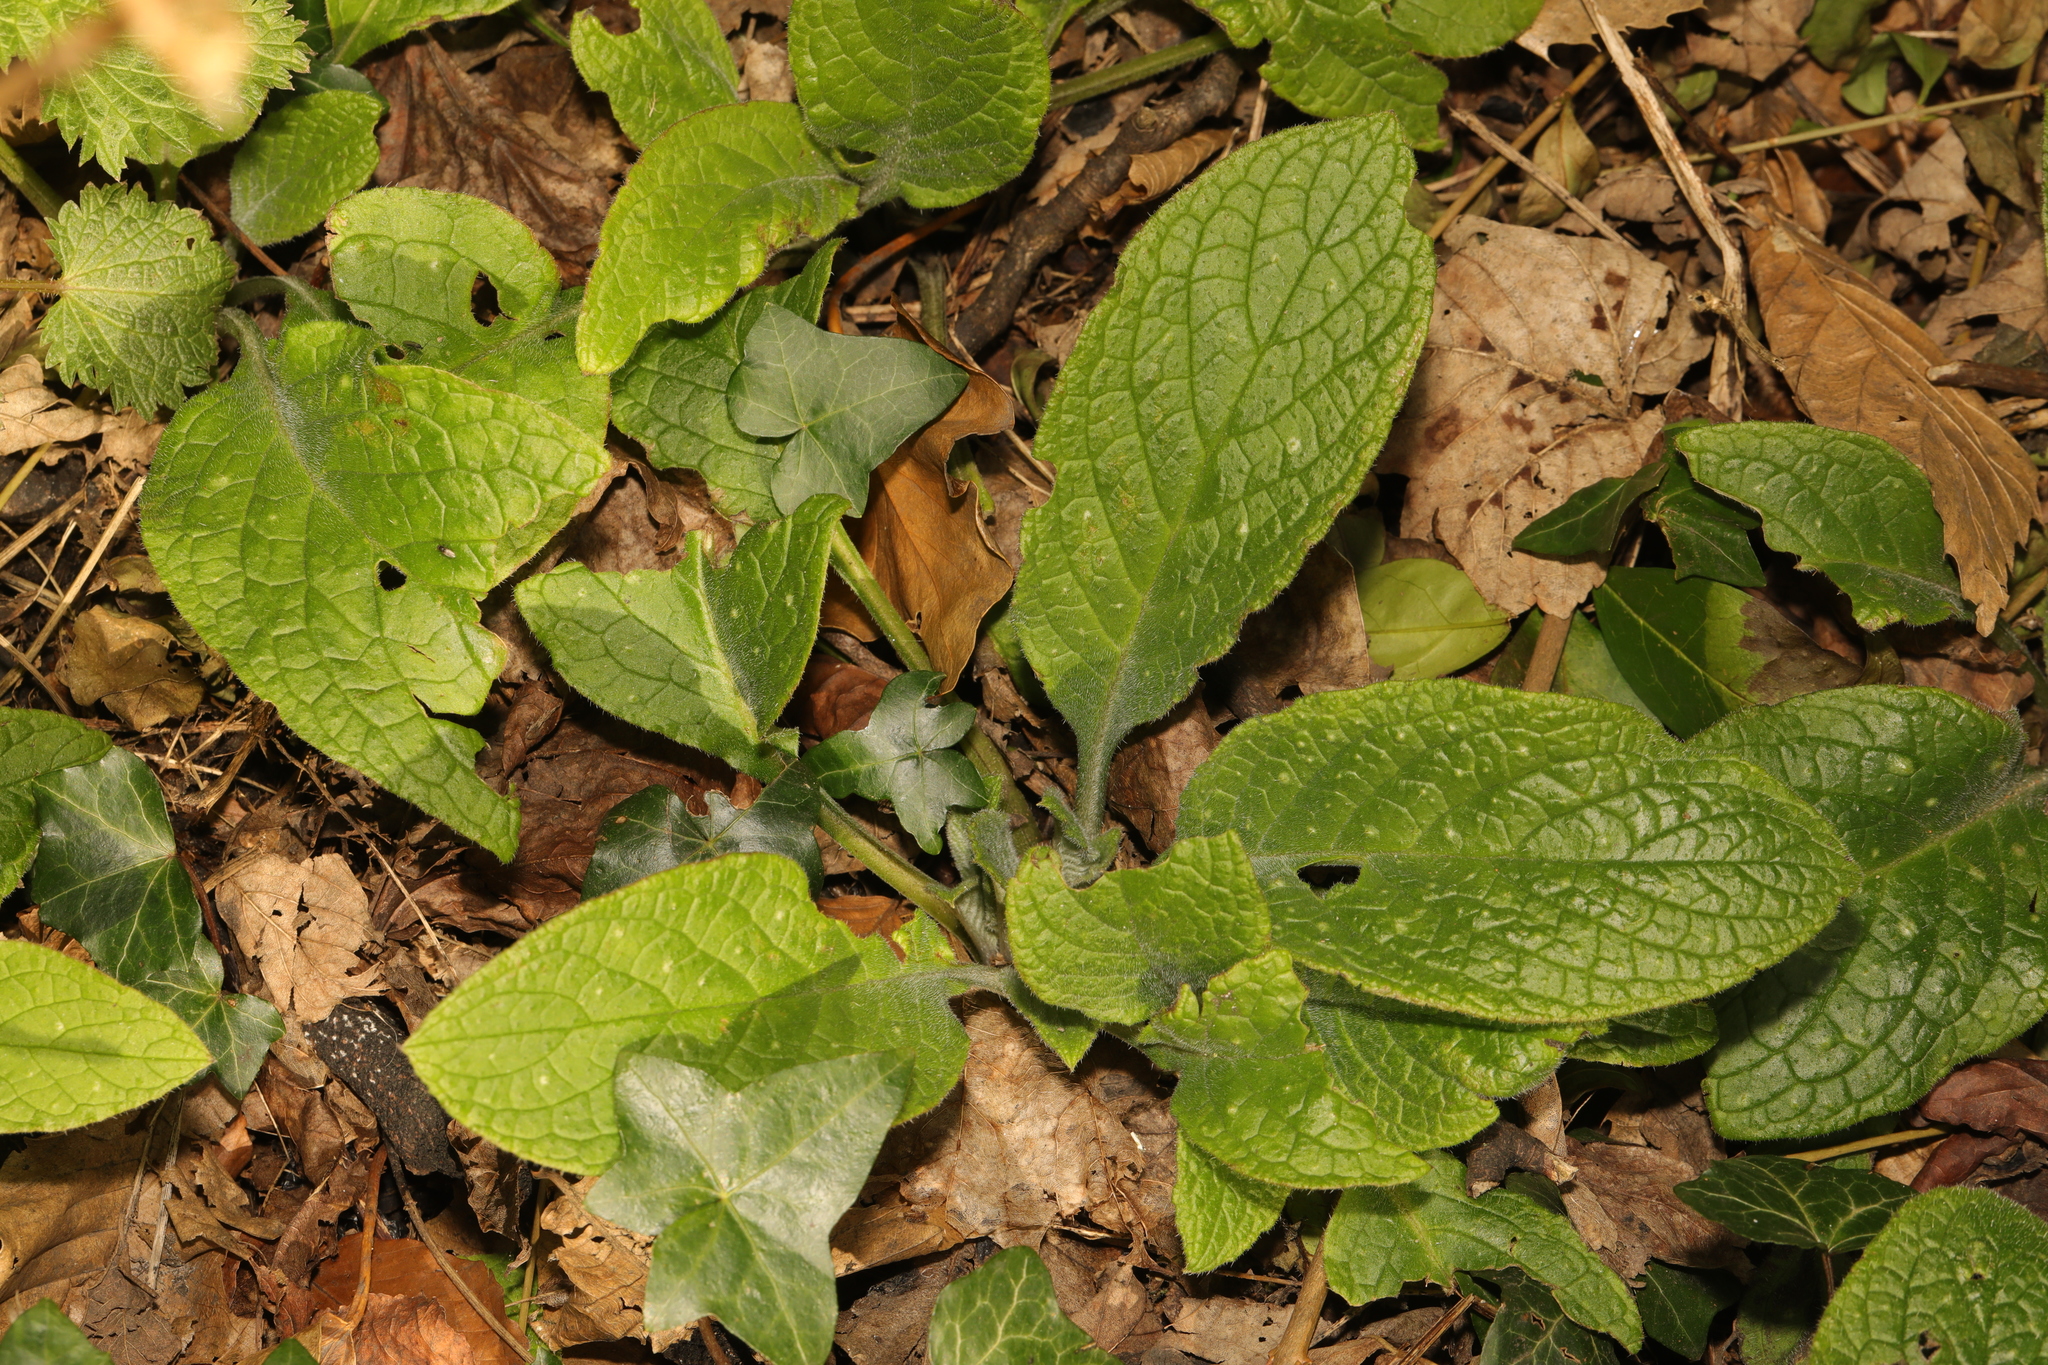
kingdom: Plantae
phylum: Tracheophyta
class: Magnoliopsida
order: Boraginales
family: Boraginaceae
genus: Pentaglottis
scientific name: Pentaglottis sempervirens
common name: Green alkanet
